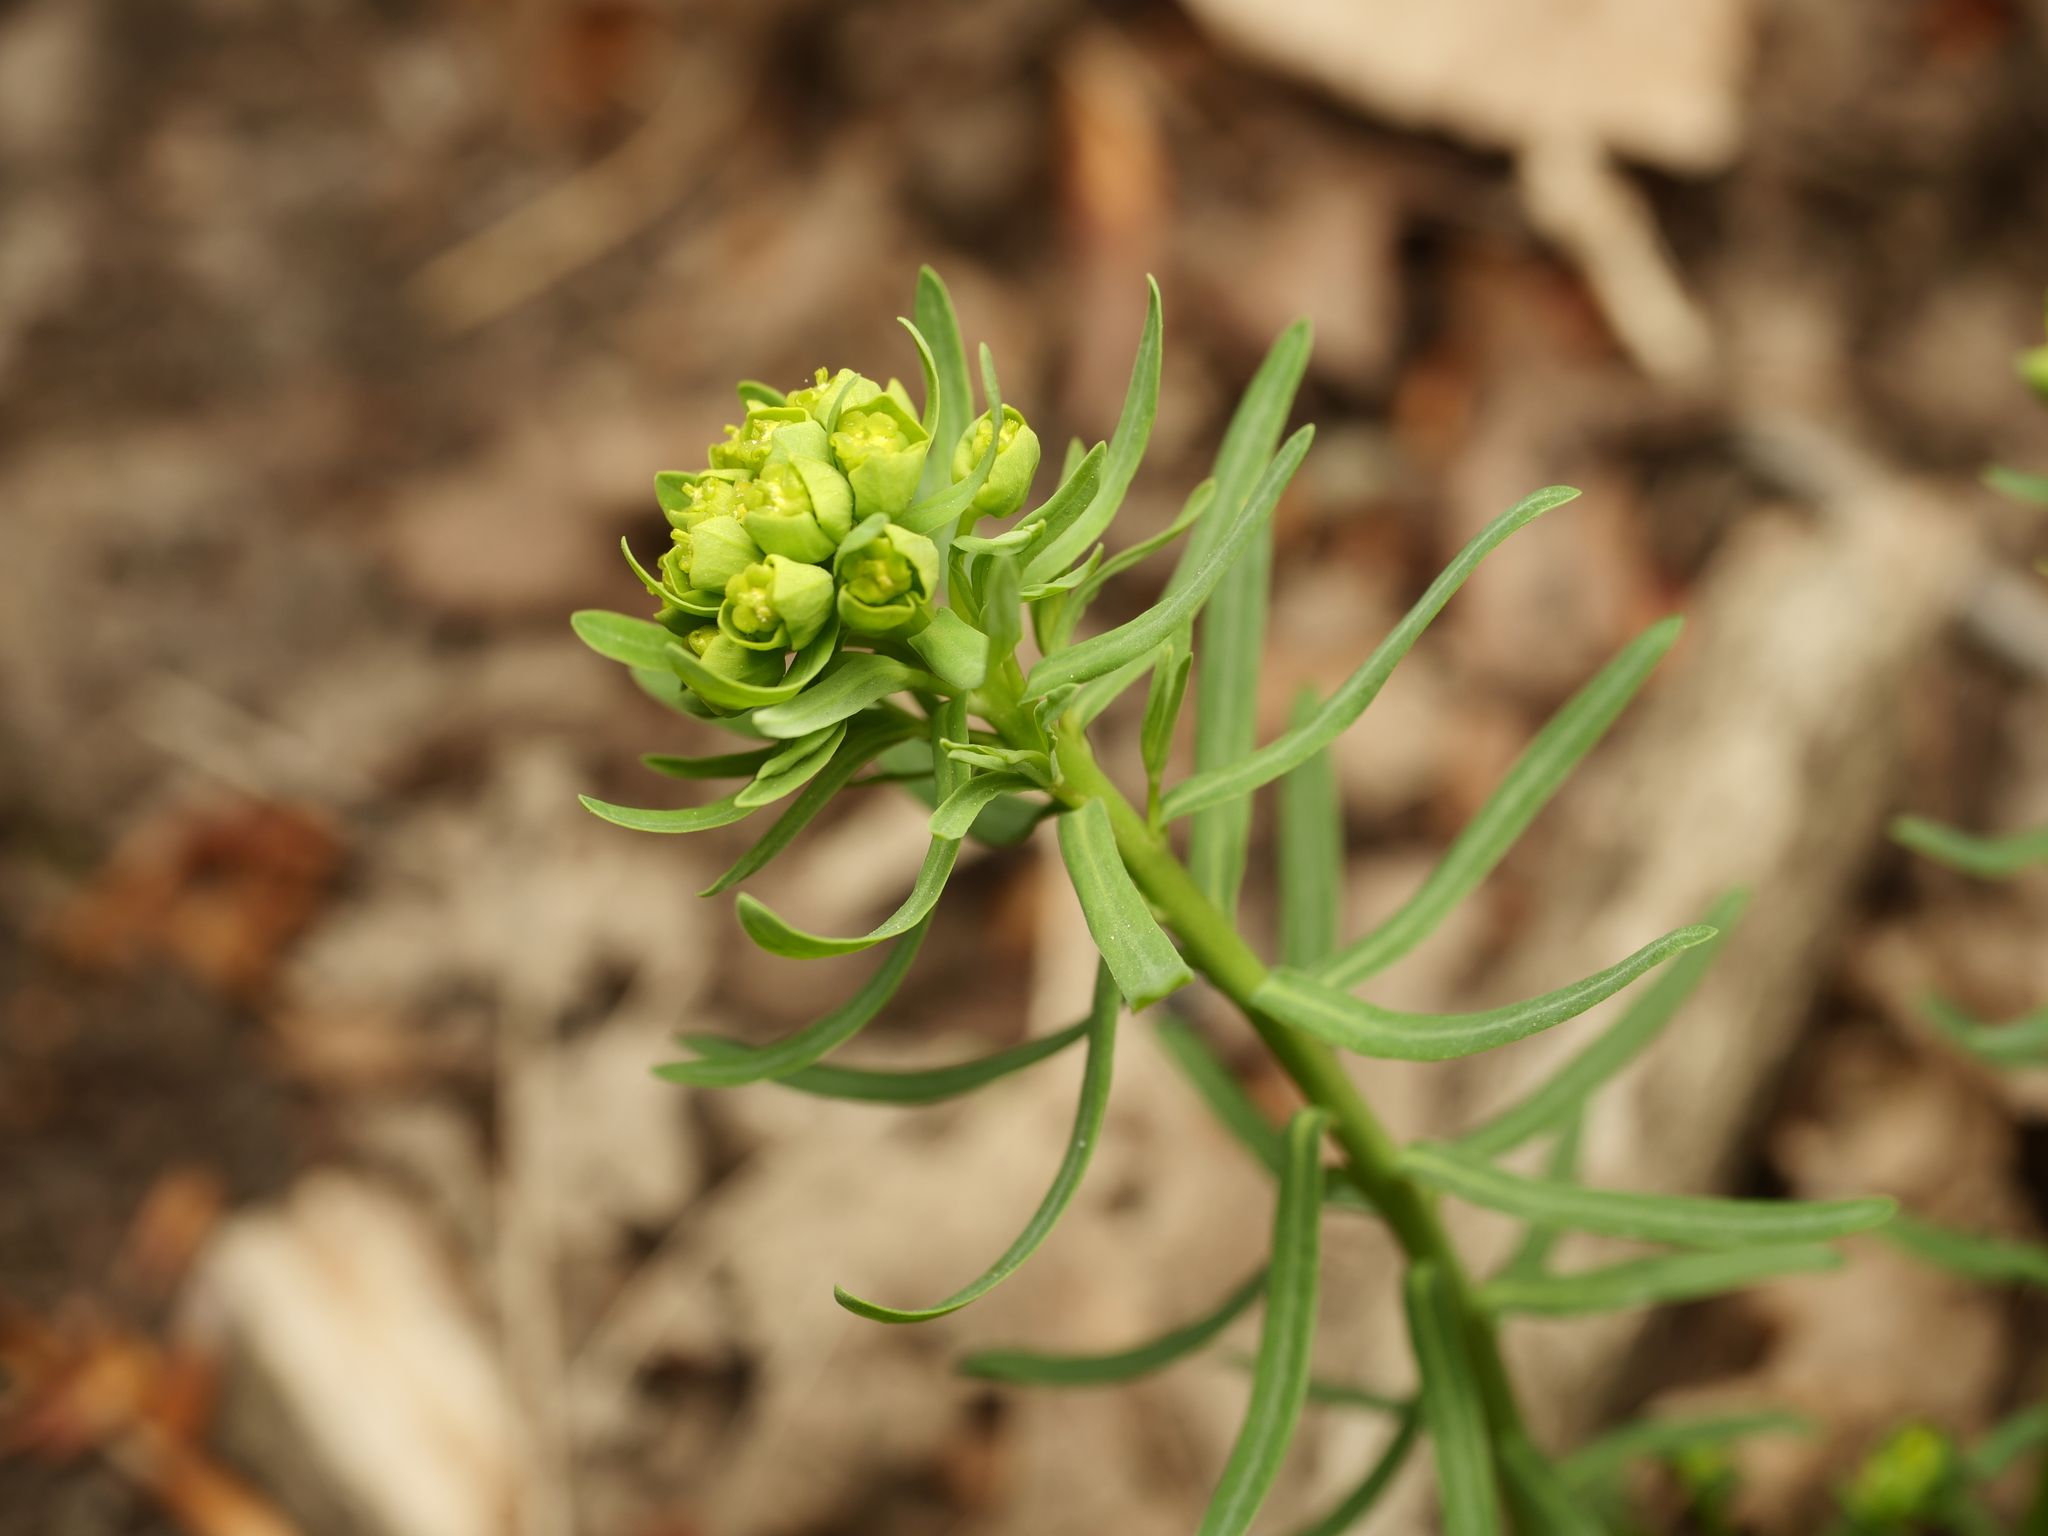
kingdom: Plantae
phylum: Tracheophyta
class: Magnoliopsida
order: Malpighiales
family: Euphorbiaceae
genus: Euphorbia
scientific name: Euphorbia cyparissias
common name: Cypress spurge
